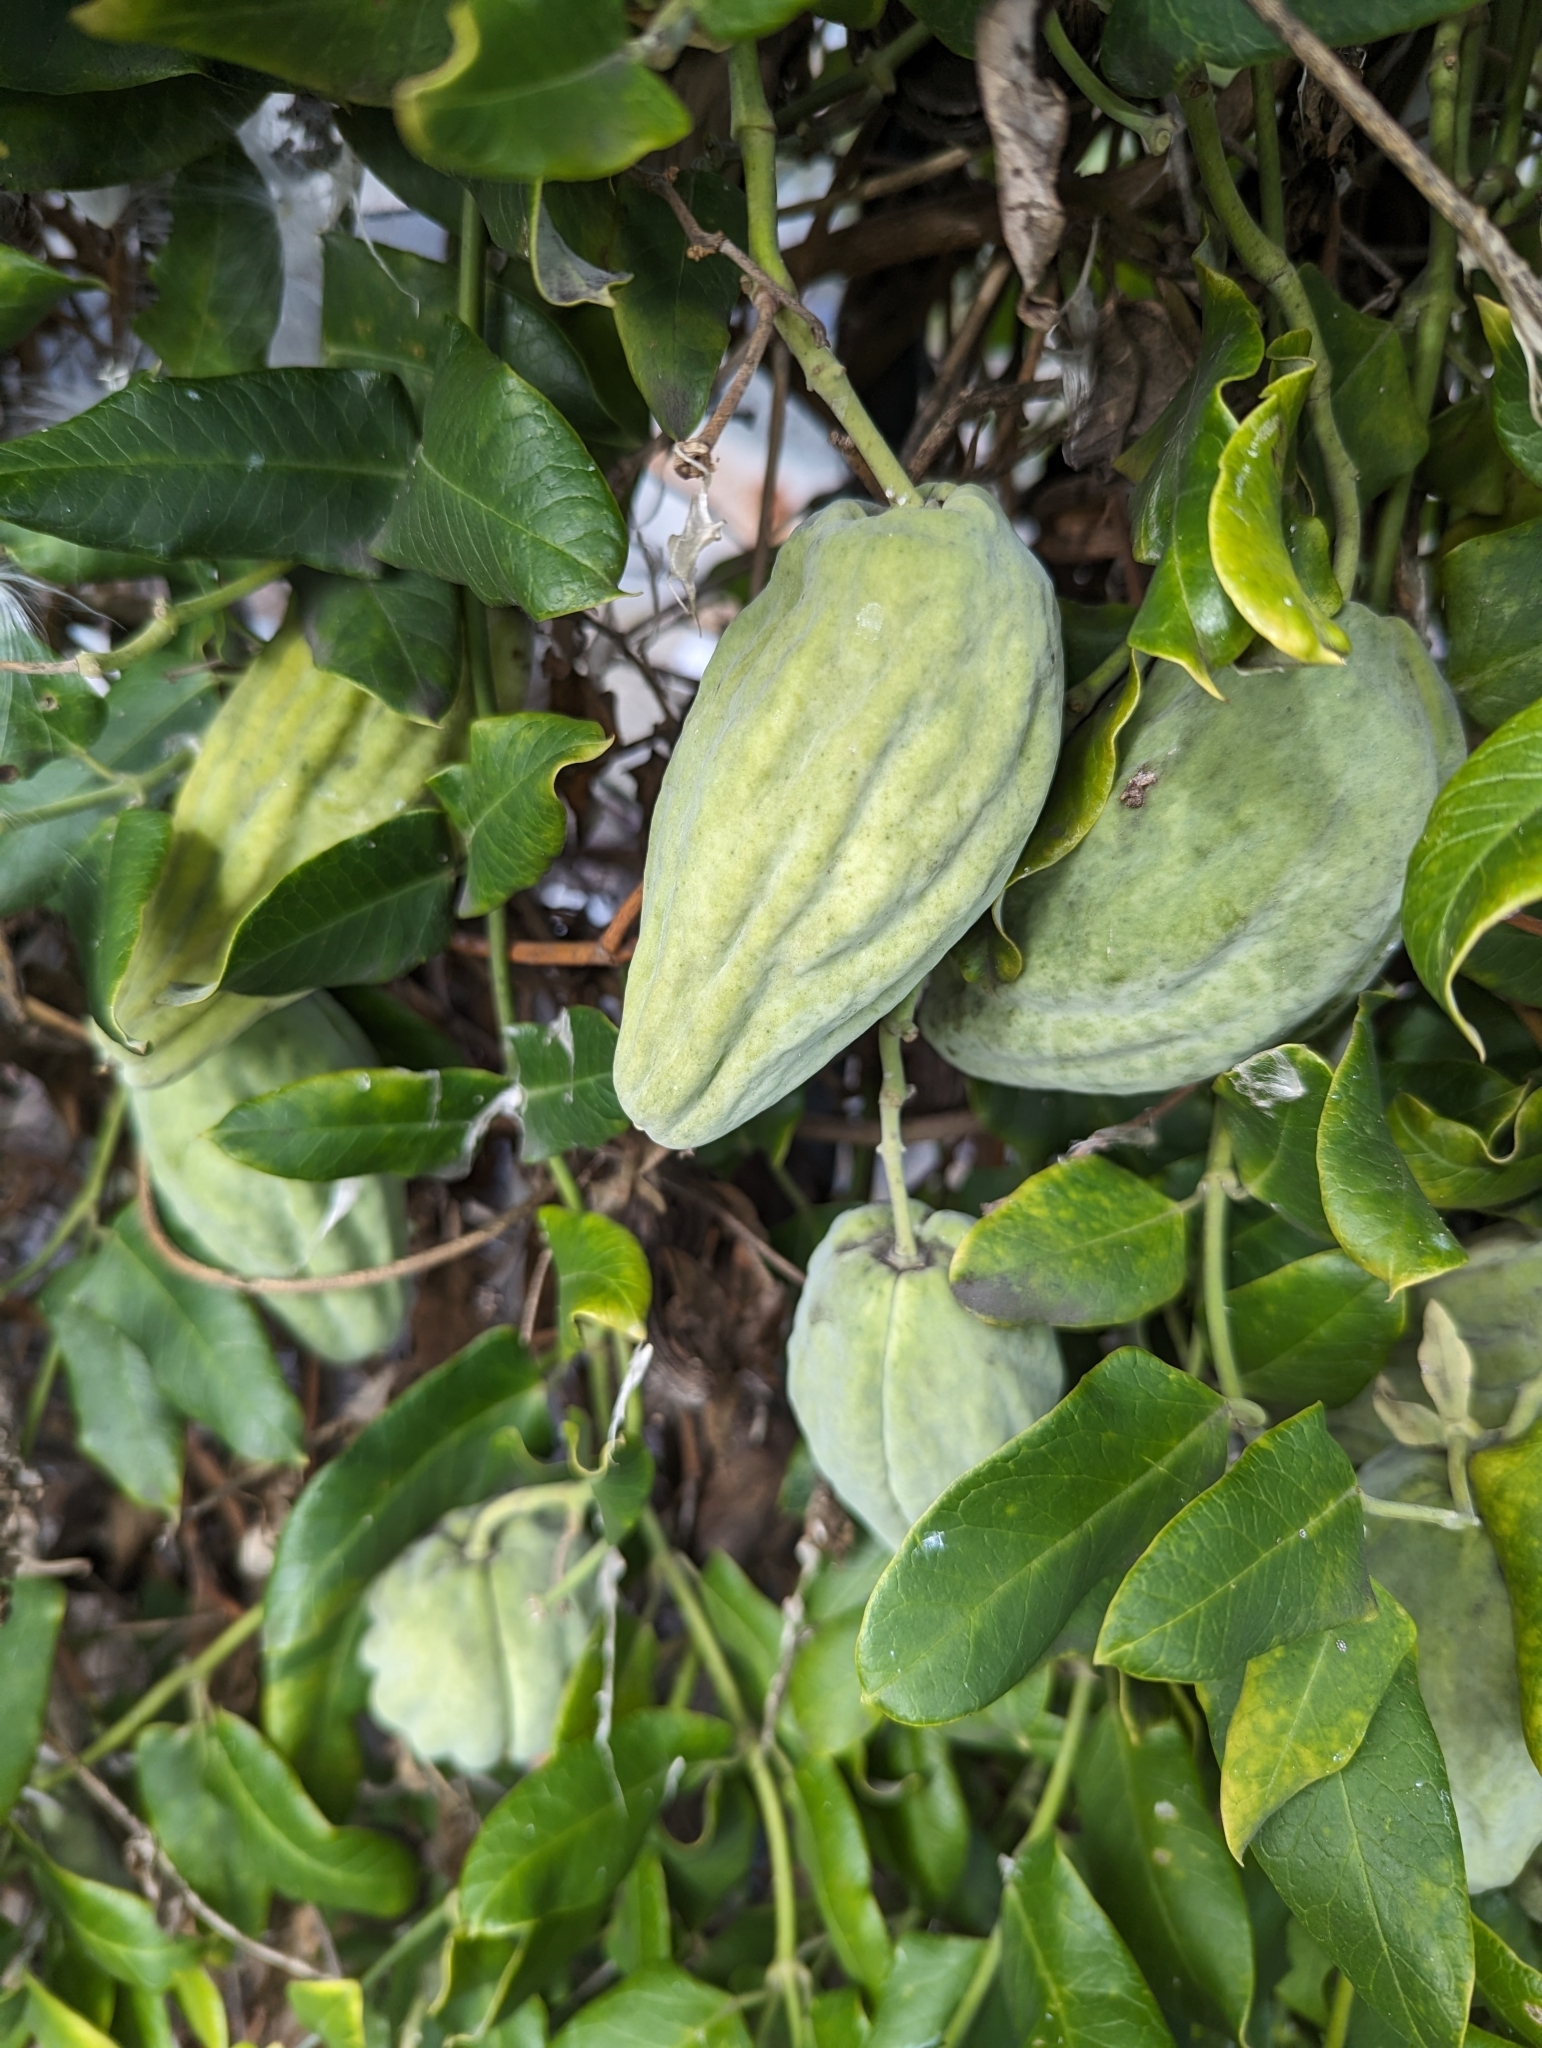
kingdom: Plantae
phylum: Tracheophyta
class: Magnoliopsida
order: Gentianales
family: Apocynaceae
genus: Araujia
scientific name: Araujia sericifera
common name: White bladderflower
